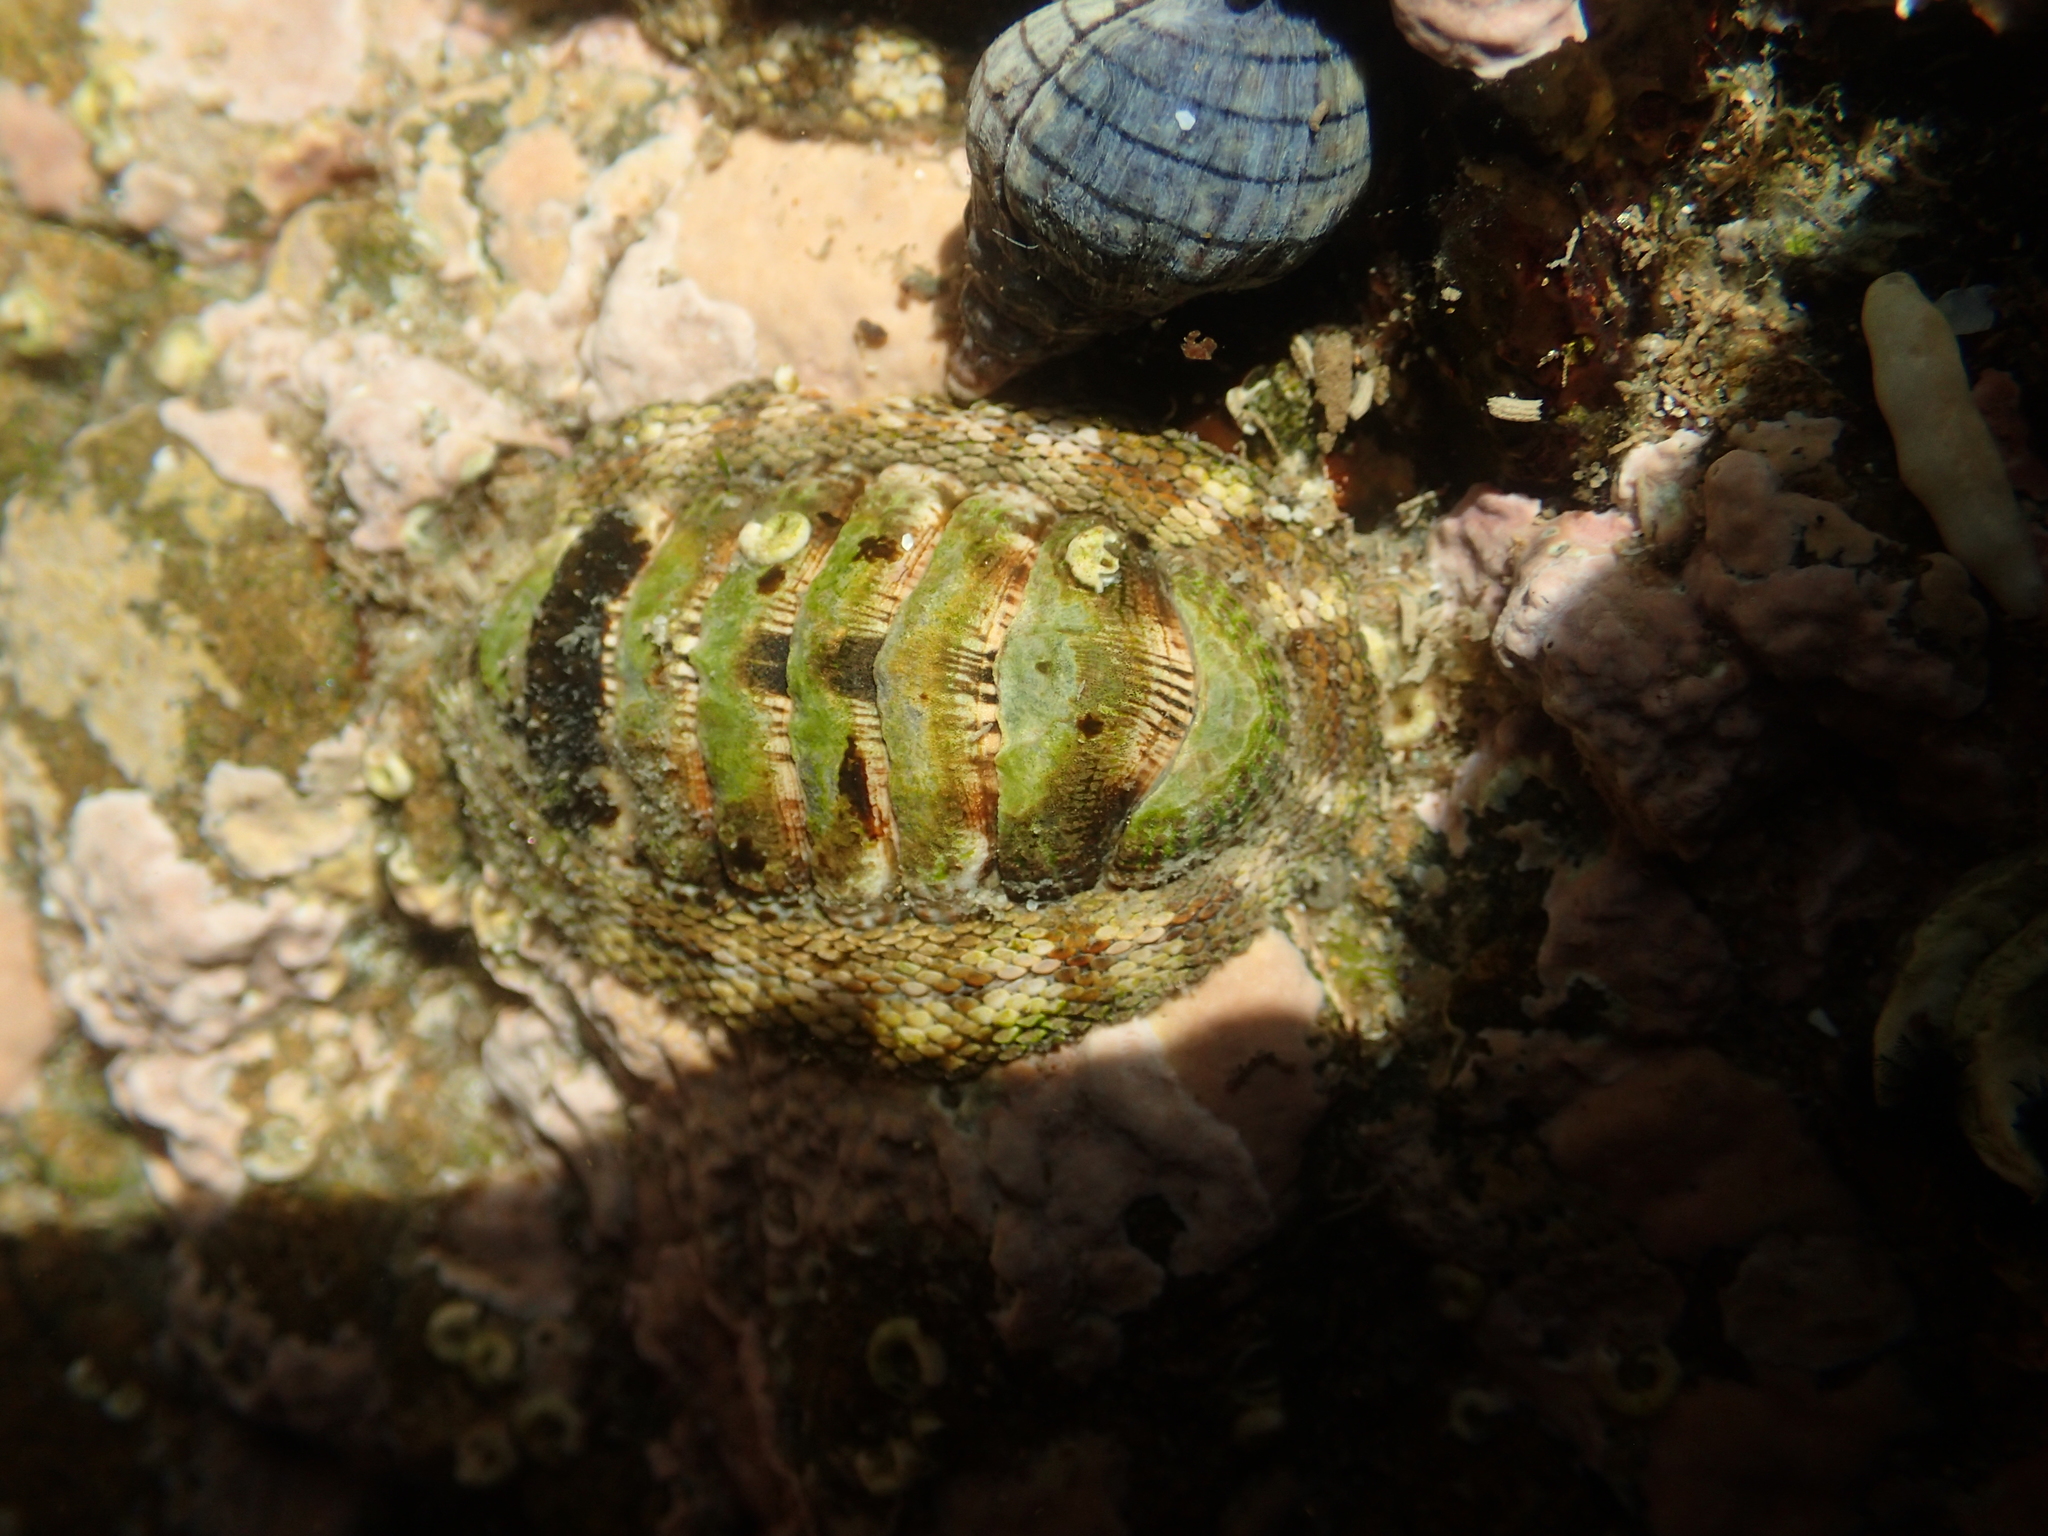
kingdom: Animalia
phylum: Mollusca
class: Polyplacophora
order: Chitonida
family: Chitonidae
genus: Sypharochiton
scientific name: Sypharochiton pelliserpentis
